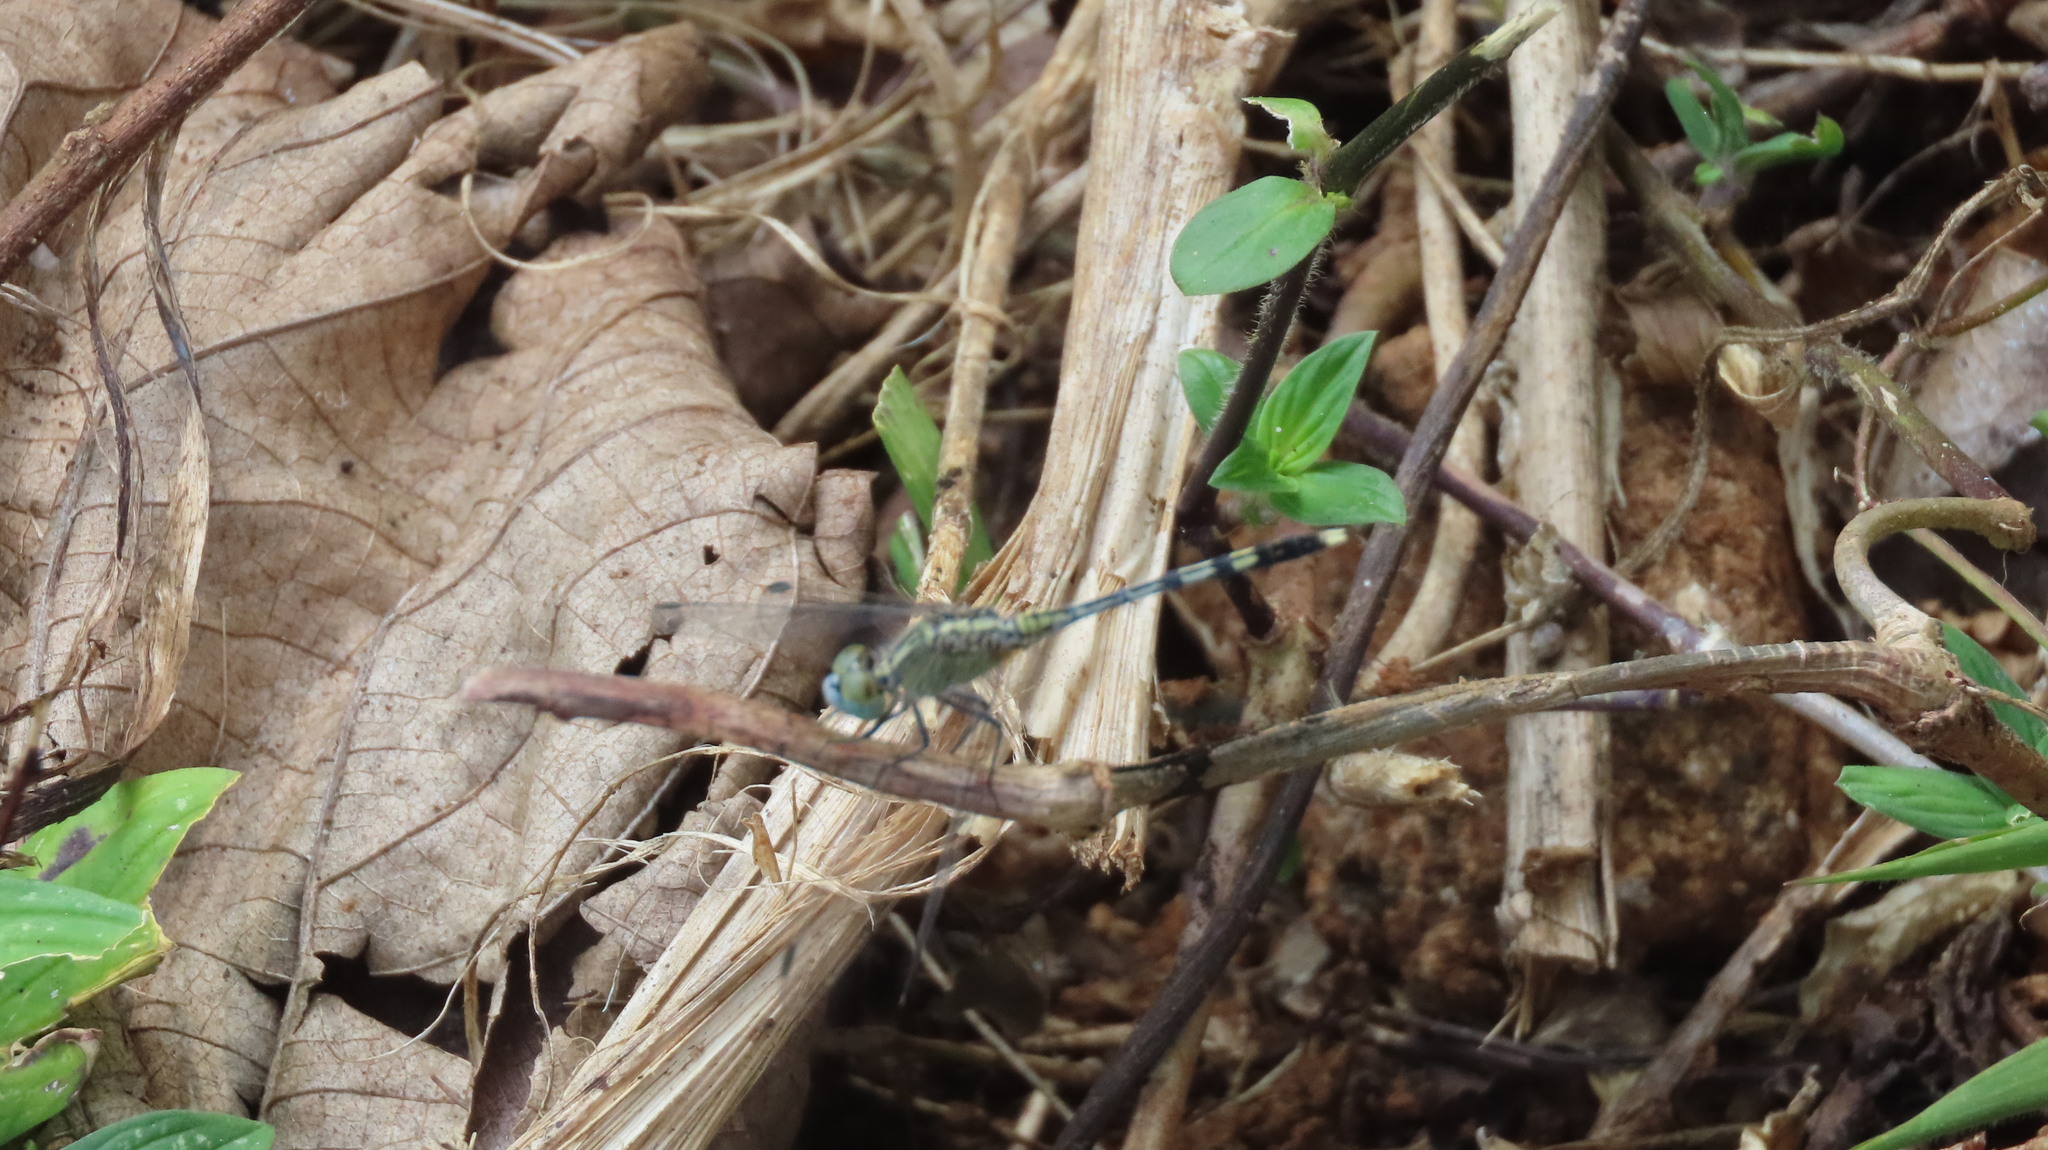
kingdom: Animalia
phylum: Arthropoda
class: Insecta
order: Odonata
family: Libellulidae
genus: Diplacodes
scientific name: Diplacodes trivialis
